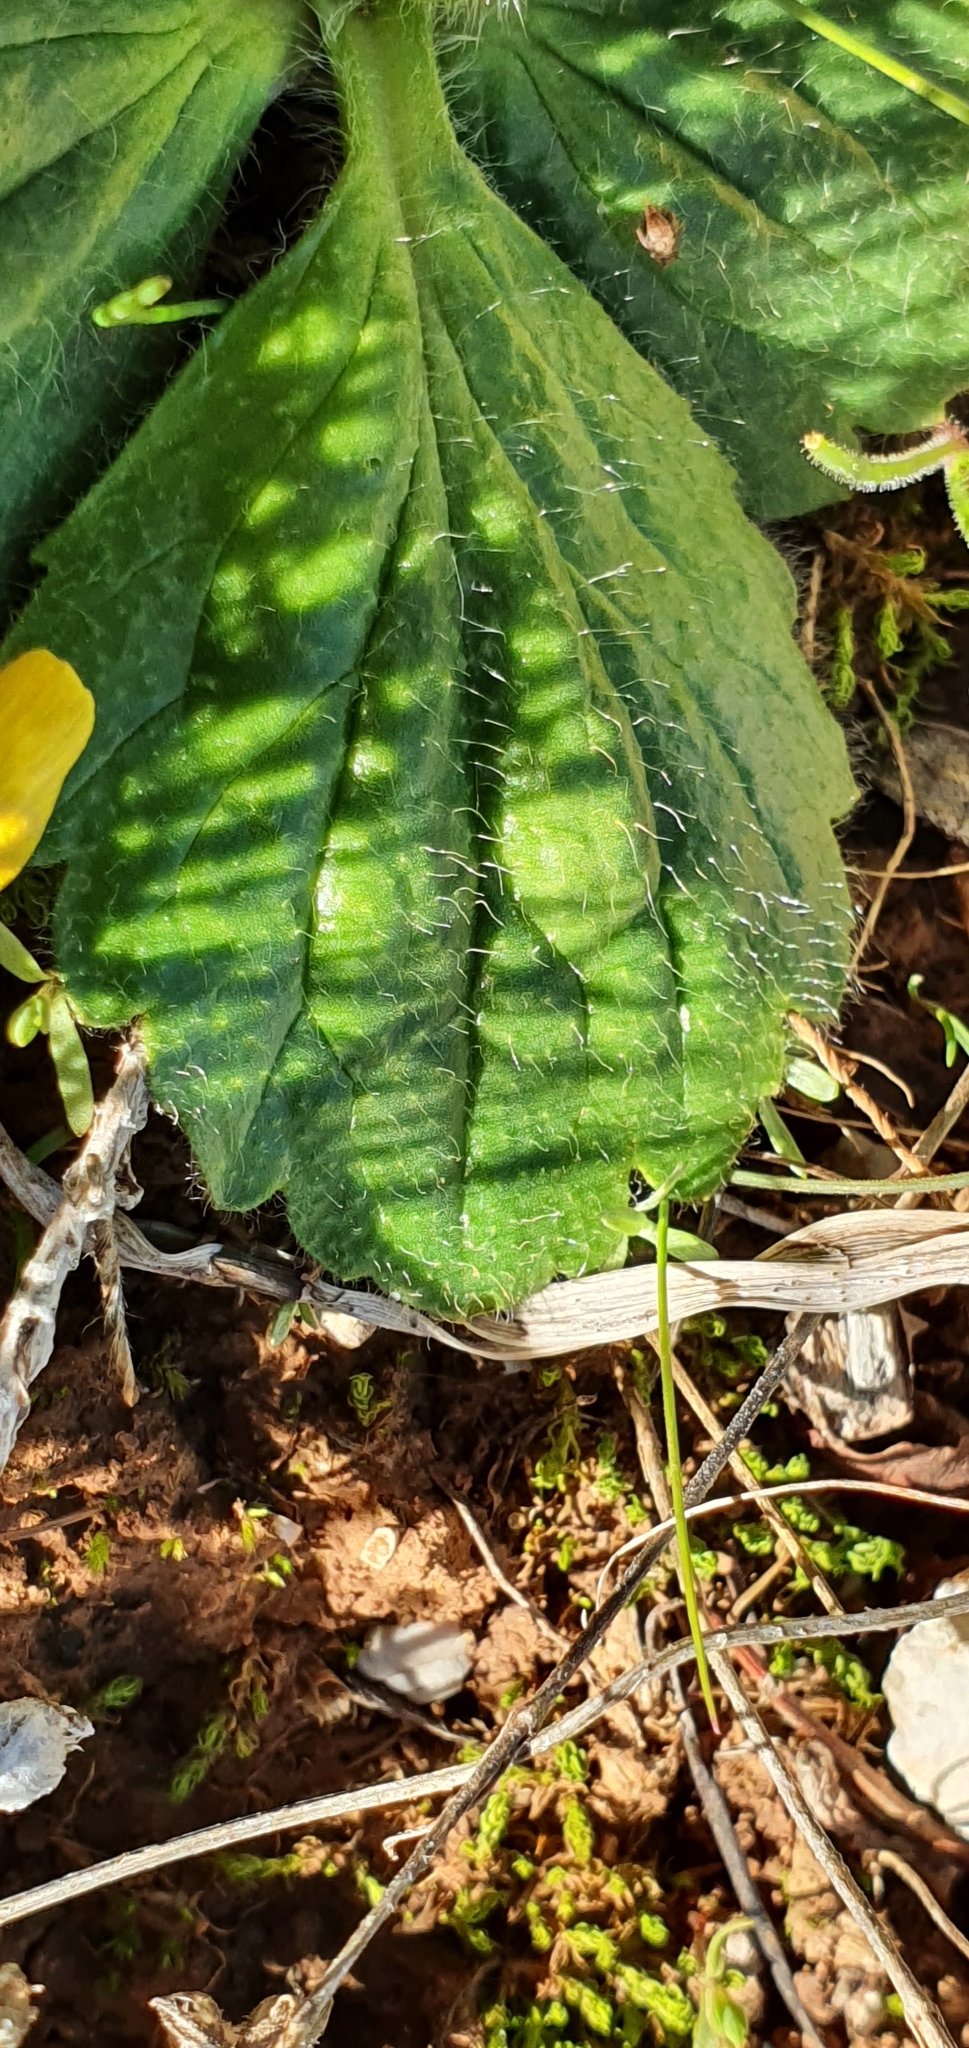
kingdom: Plantae
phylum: Tracheophyta
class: Magnoliopsida
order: Ranunculales
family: Ranunculaceae
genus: Ranunculus
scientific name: Ranunculus bullatus
